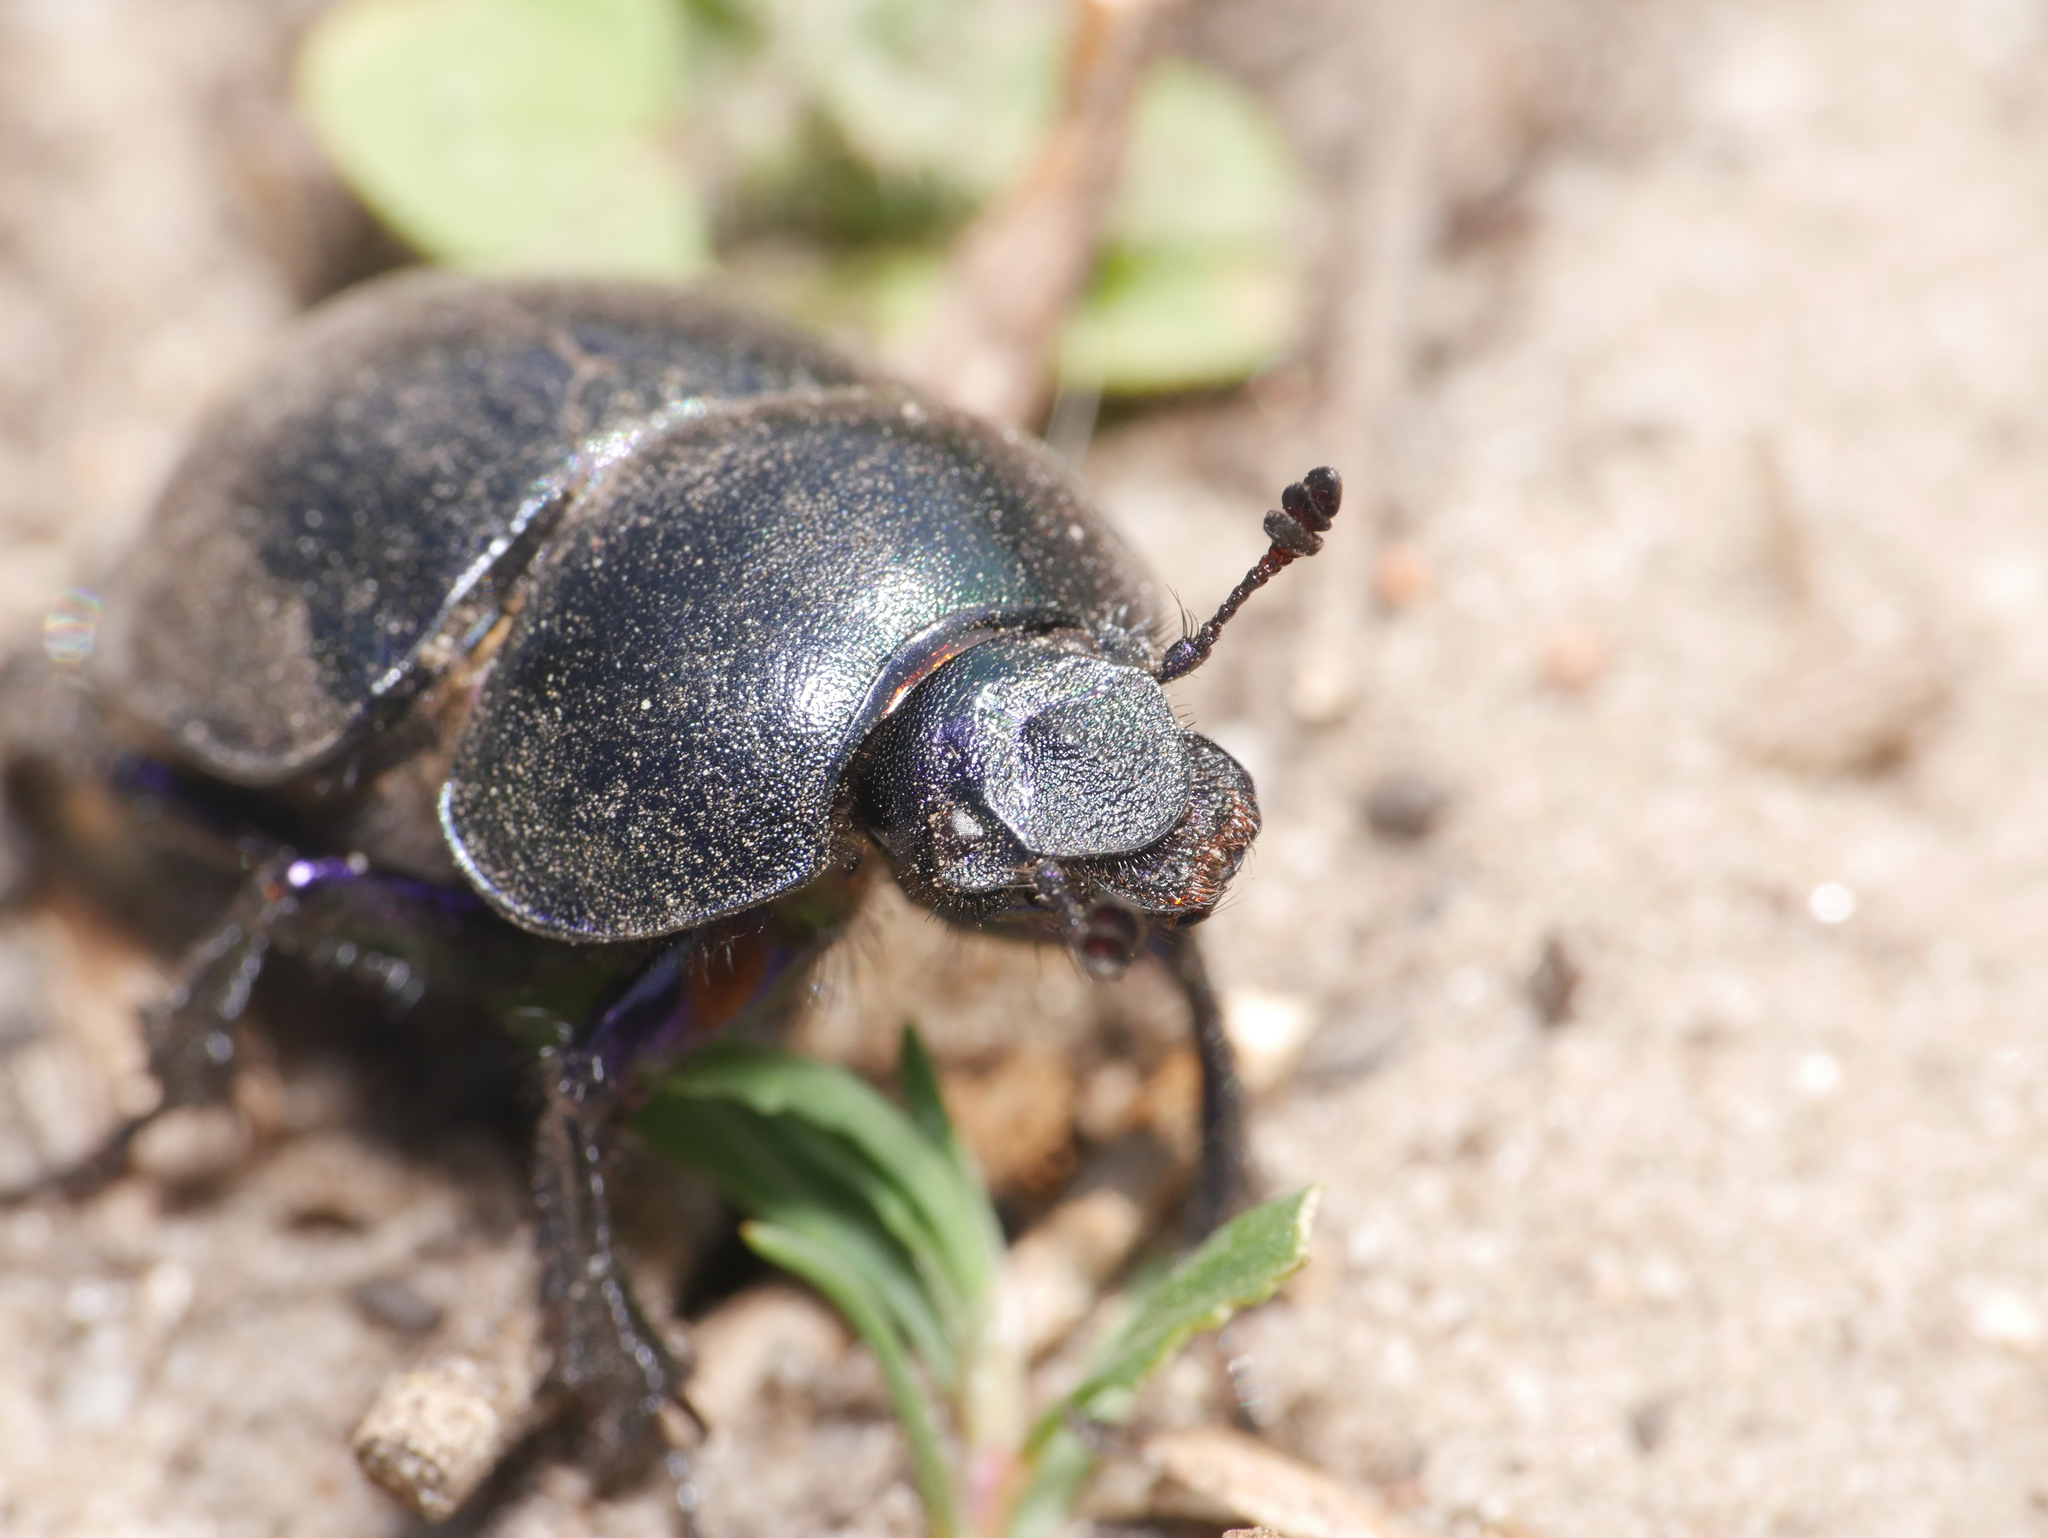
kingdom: Animalia
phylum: Arthropoda
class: Insecta
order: Coleoptera
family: Geotrupidae
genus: Trypocopris
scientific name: Trypocopris vernalis
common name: Spring dumbledor
